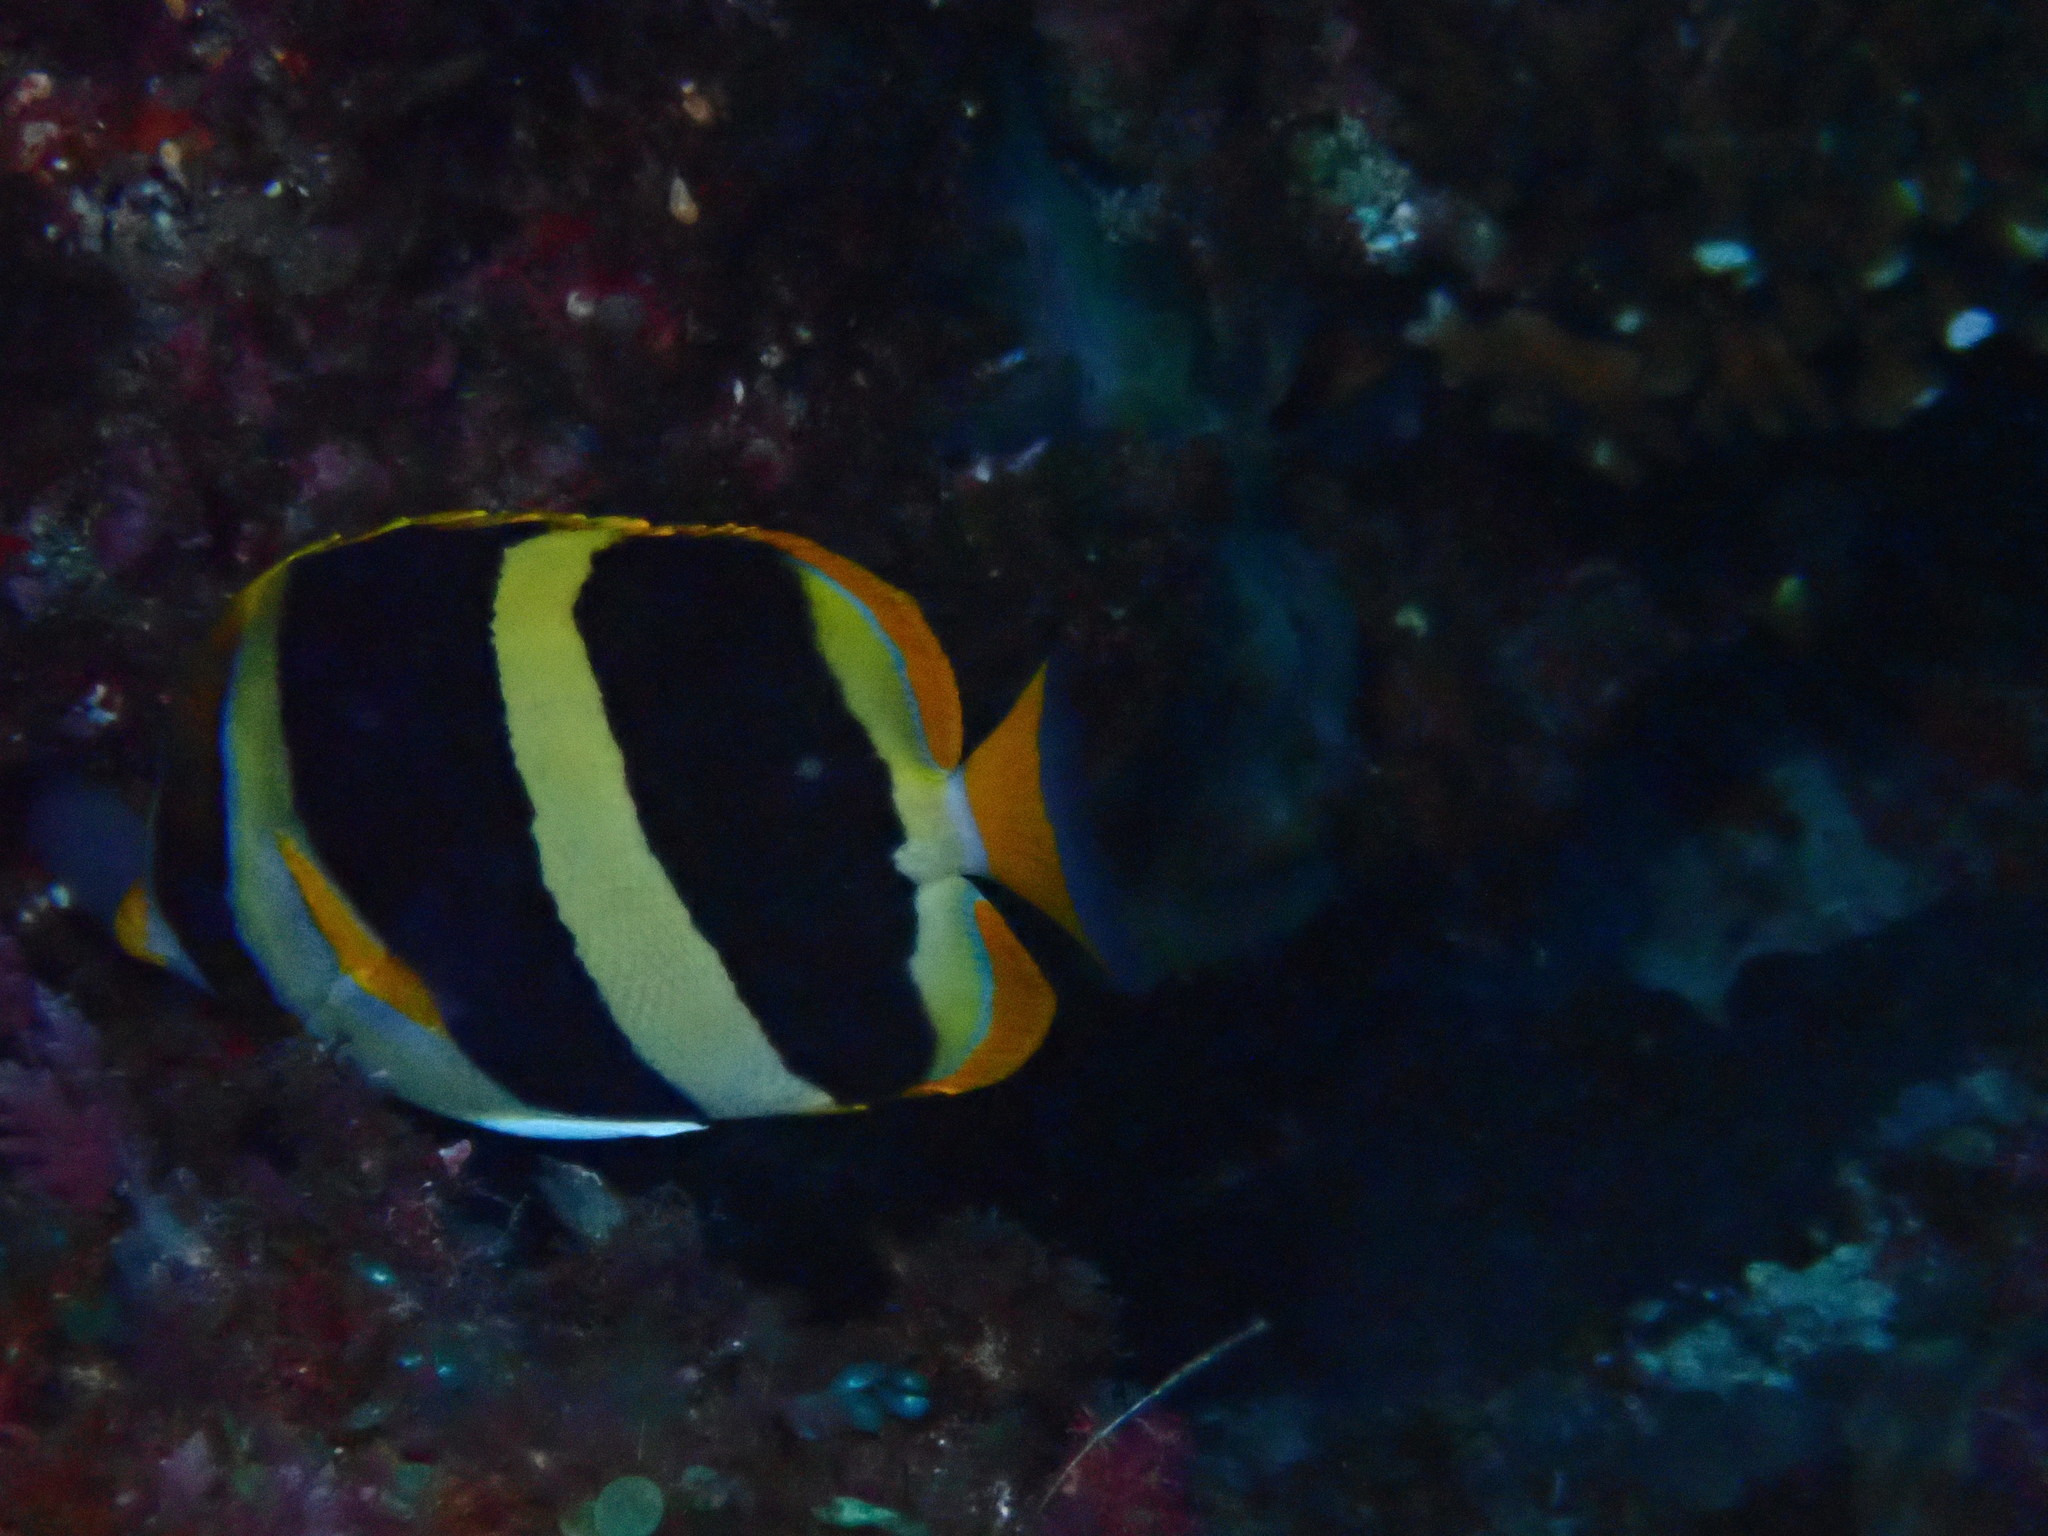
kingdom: Animalia
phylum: Chordata
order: Perciformes
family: Chaetodontidae
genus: Chaetodon
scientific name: Chaetodon tricinctus
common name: Three-striped butterflyfish
